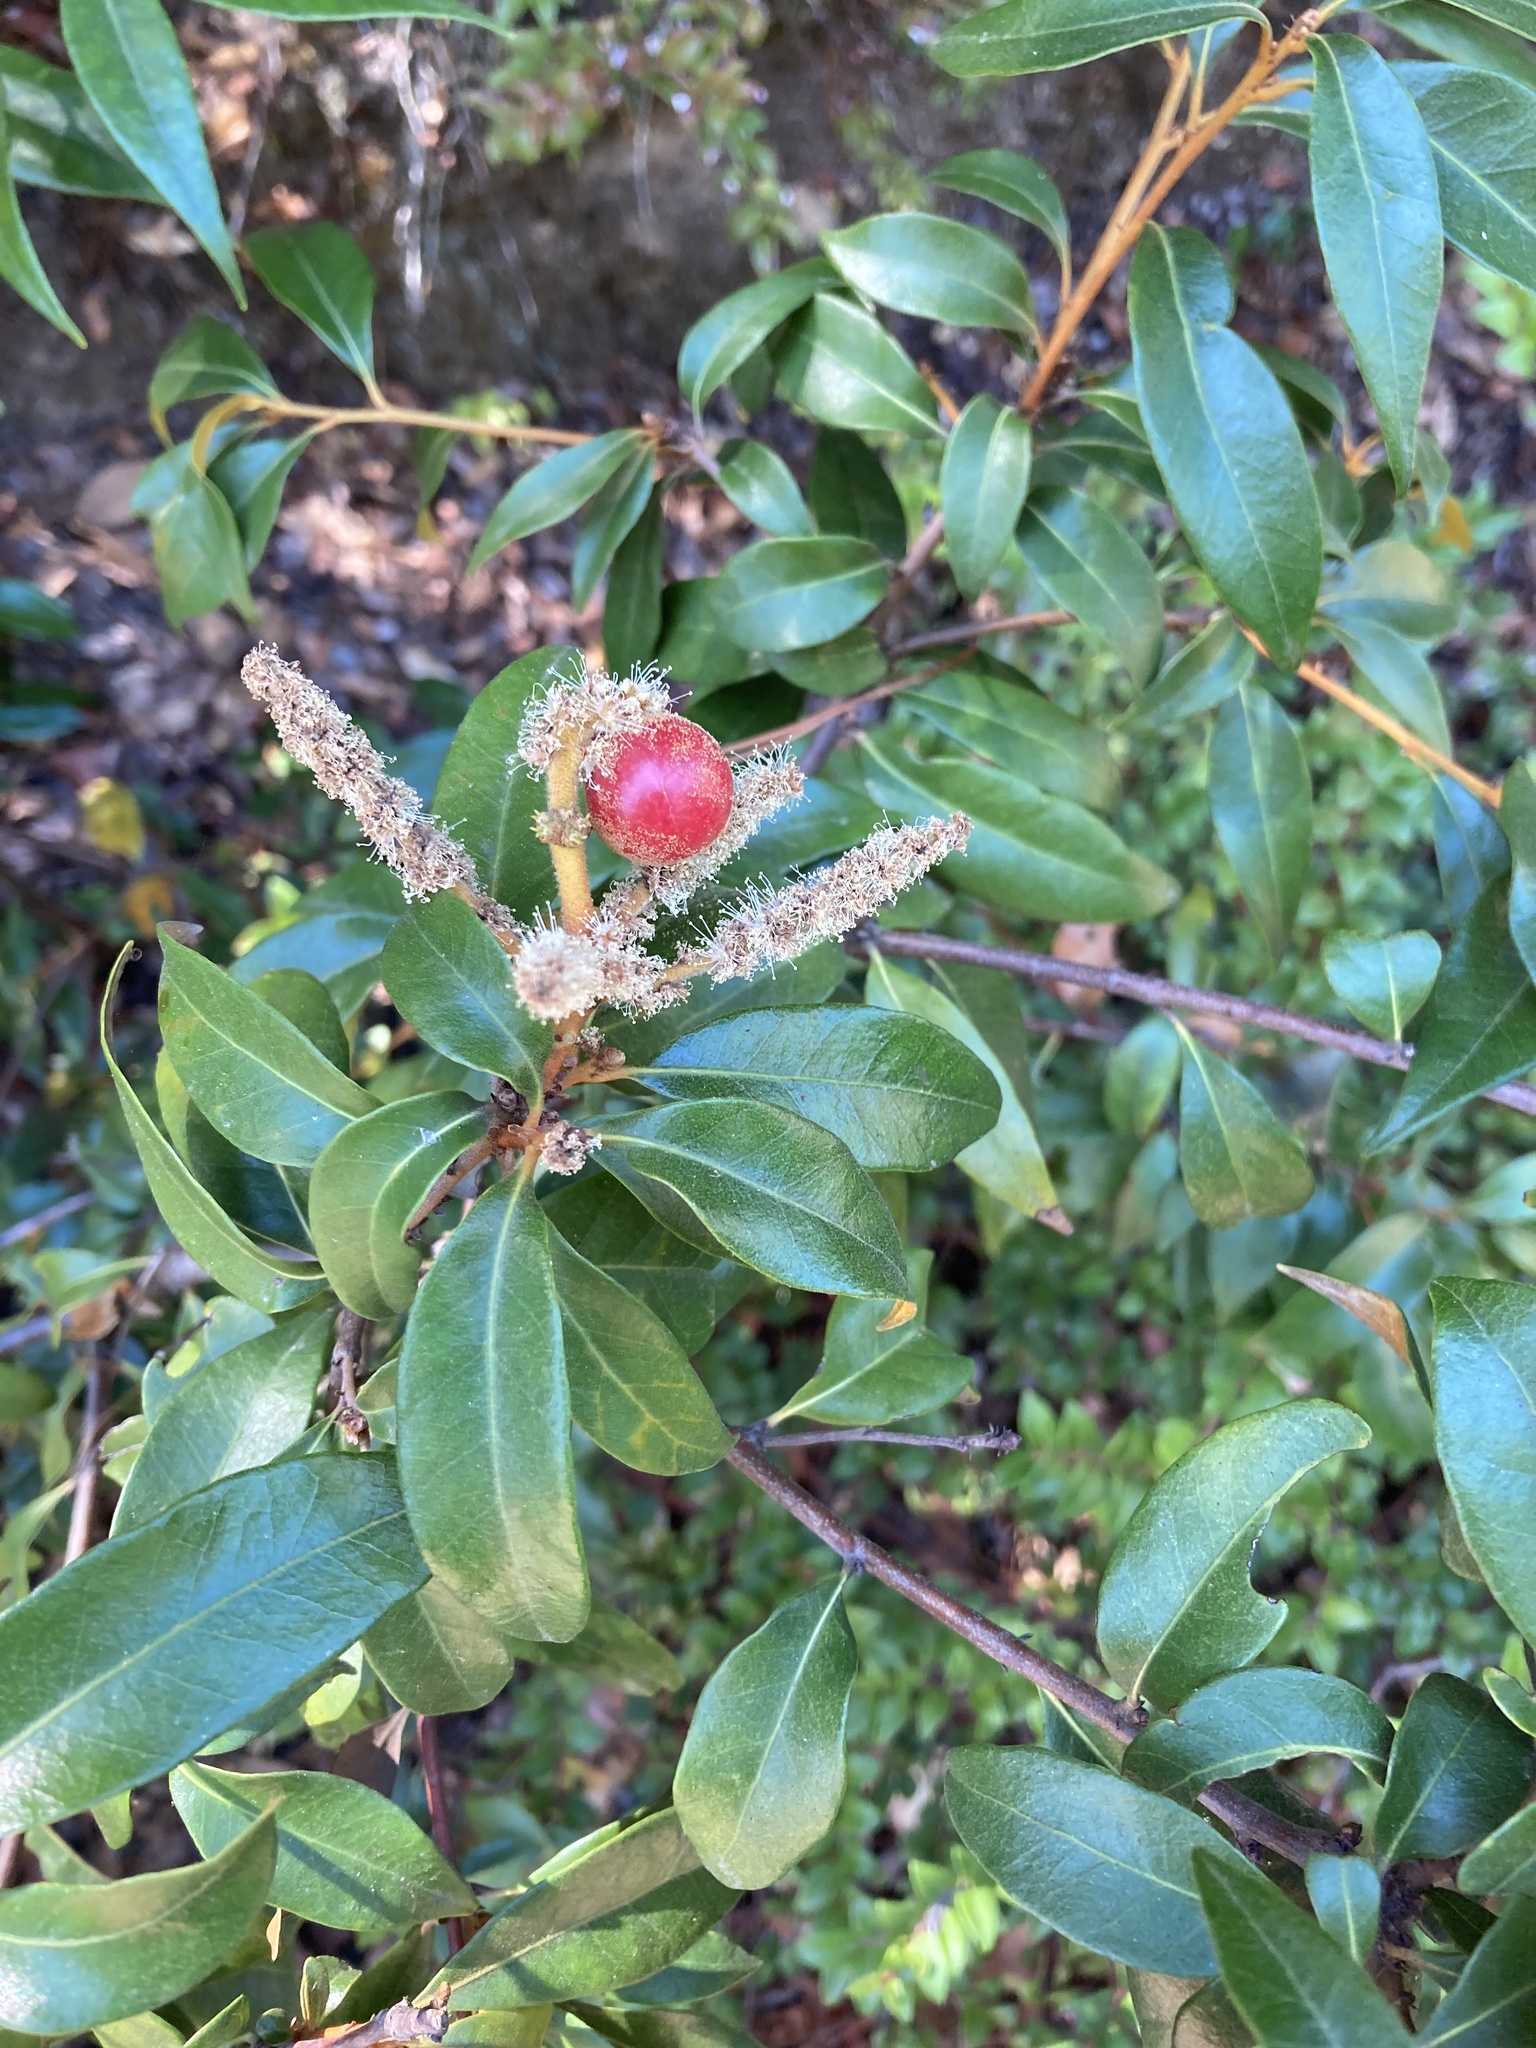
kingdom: Animalia
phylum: Arthropoda
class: Insecta
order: Hymenoptera
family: Cynipidae
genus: Synergus
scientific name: Synergus castanopsidis
